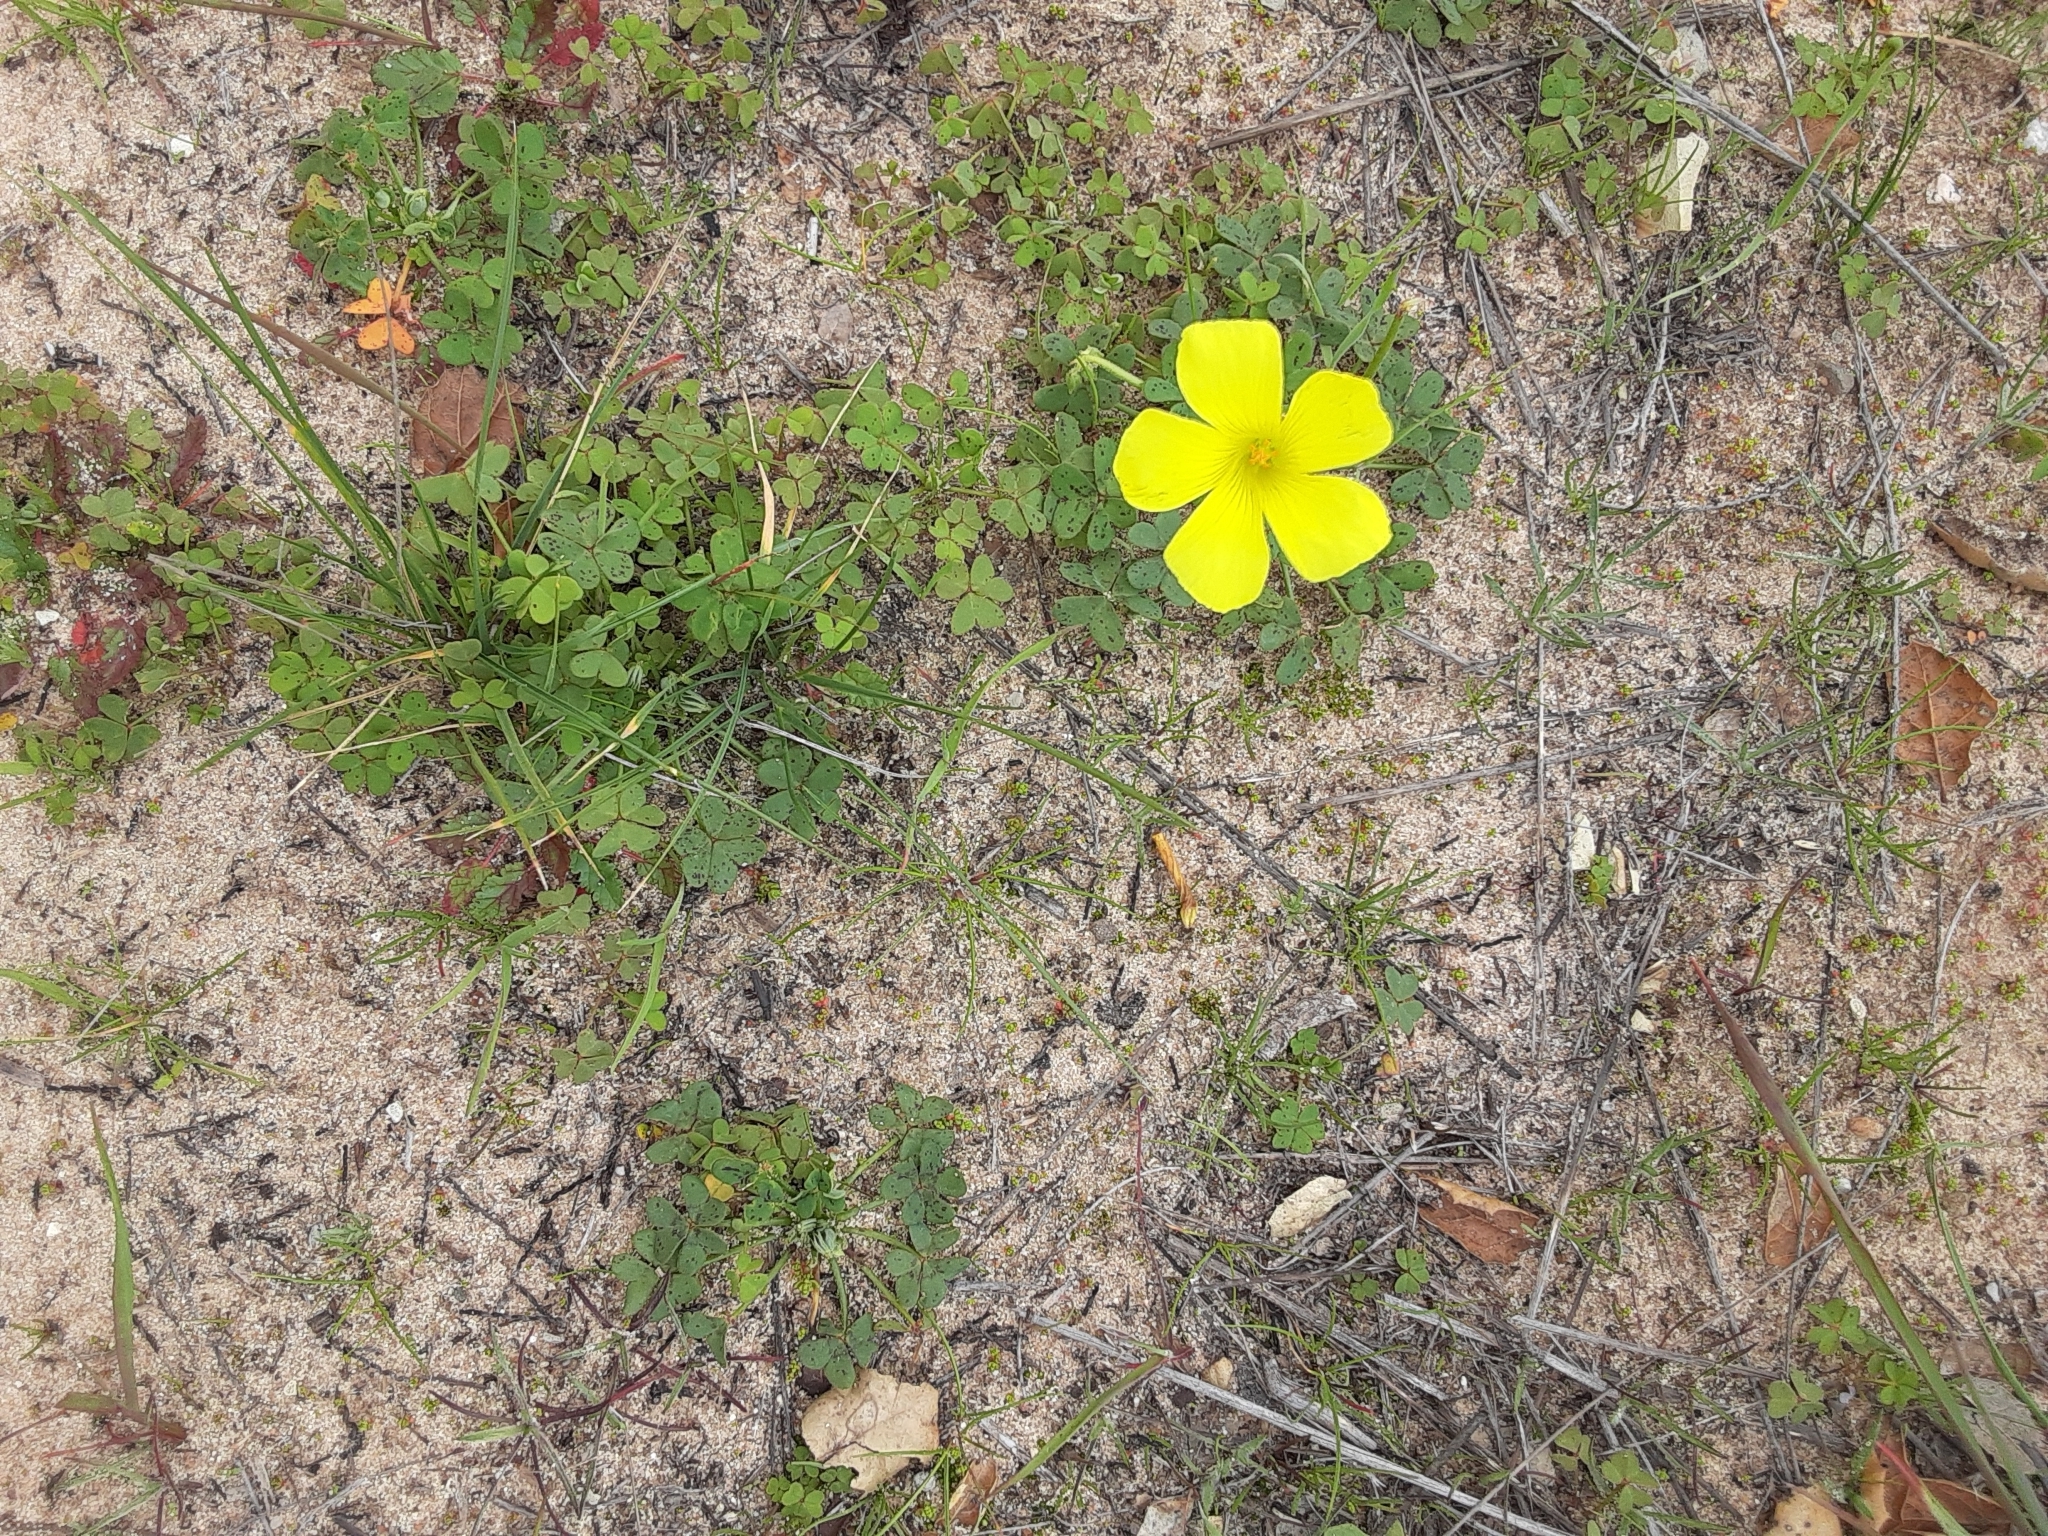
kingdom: Plantae
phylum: Tracheophyta
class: Magnoliopsida
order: Oxalidales
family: Oxalidaceae
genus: Oxalis
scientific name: Oxalis pes-caprae
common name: Bermuda-buttercup
